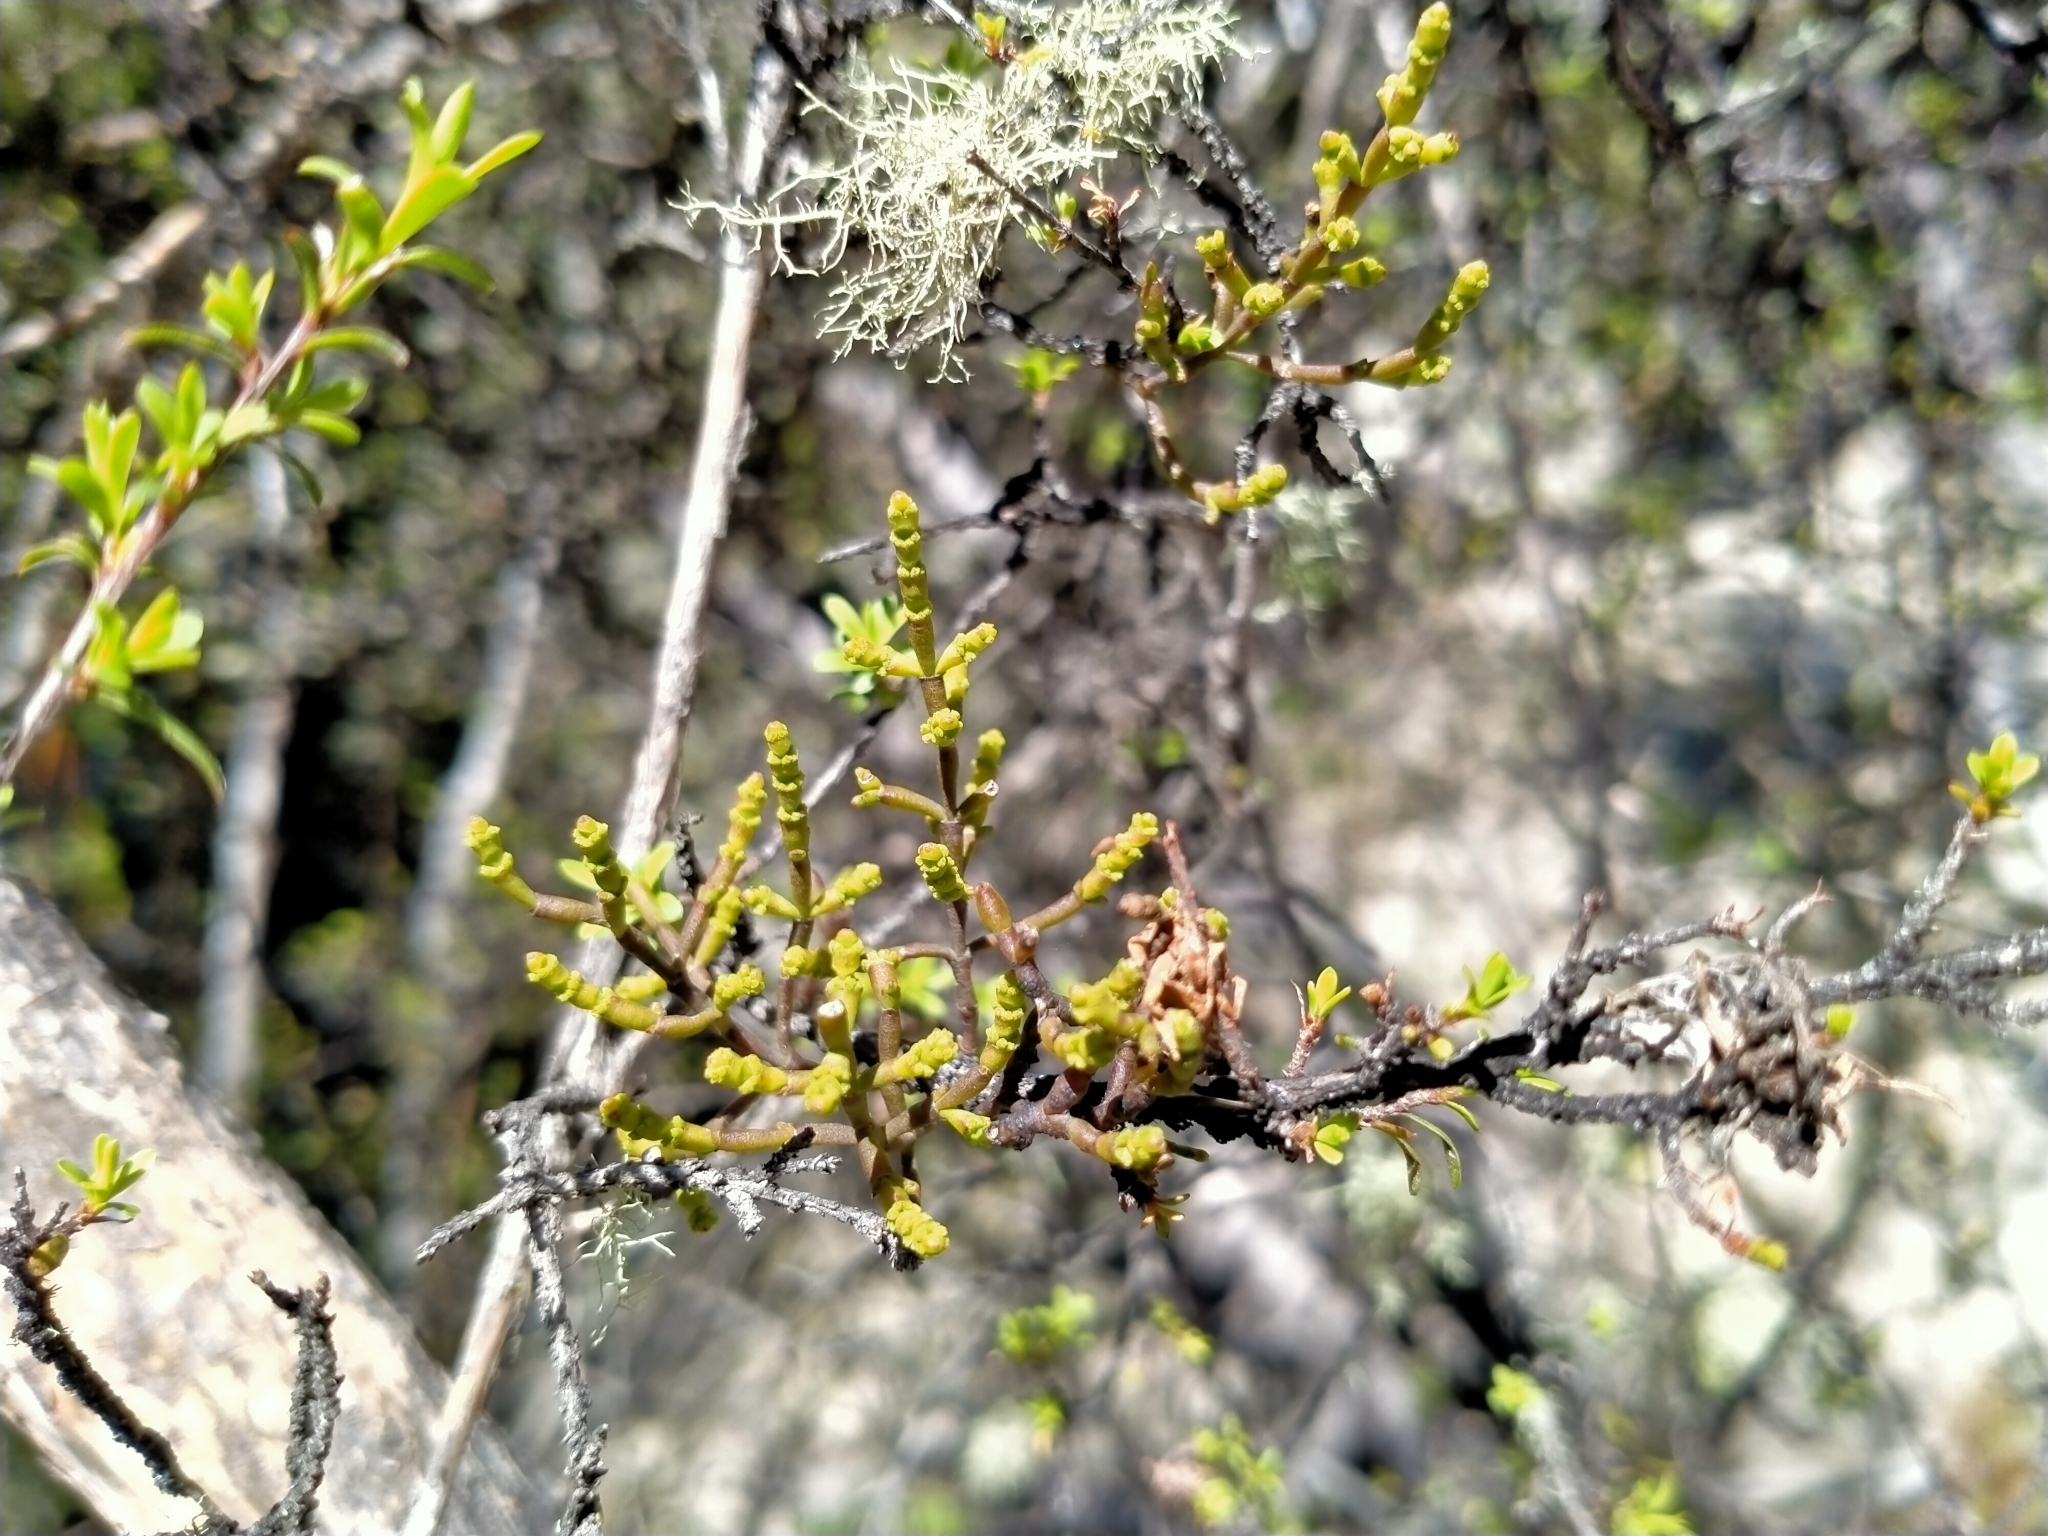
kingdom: Plantae
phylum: Tracheophyta
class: Magnoliopsida
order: Santalales
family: Viscaceae
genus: Korthalsella
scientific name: Korthalsella salicornioides
